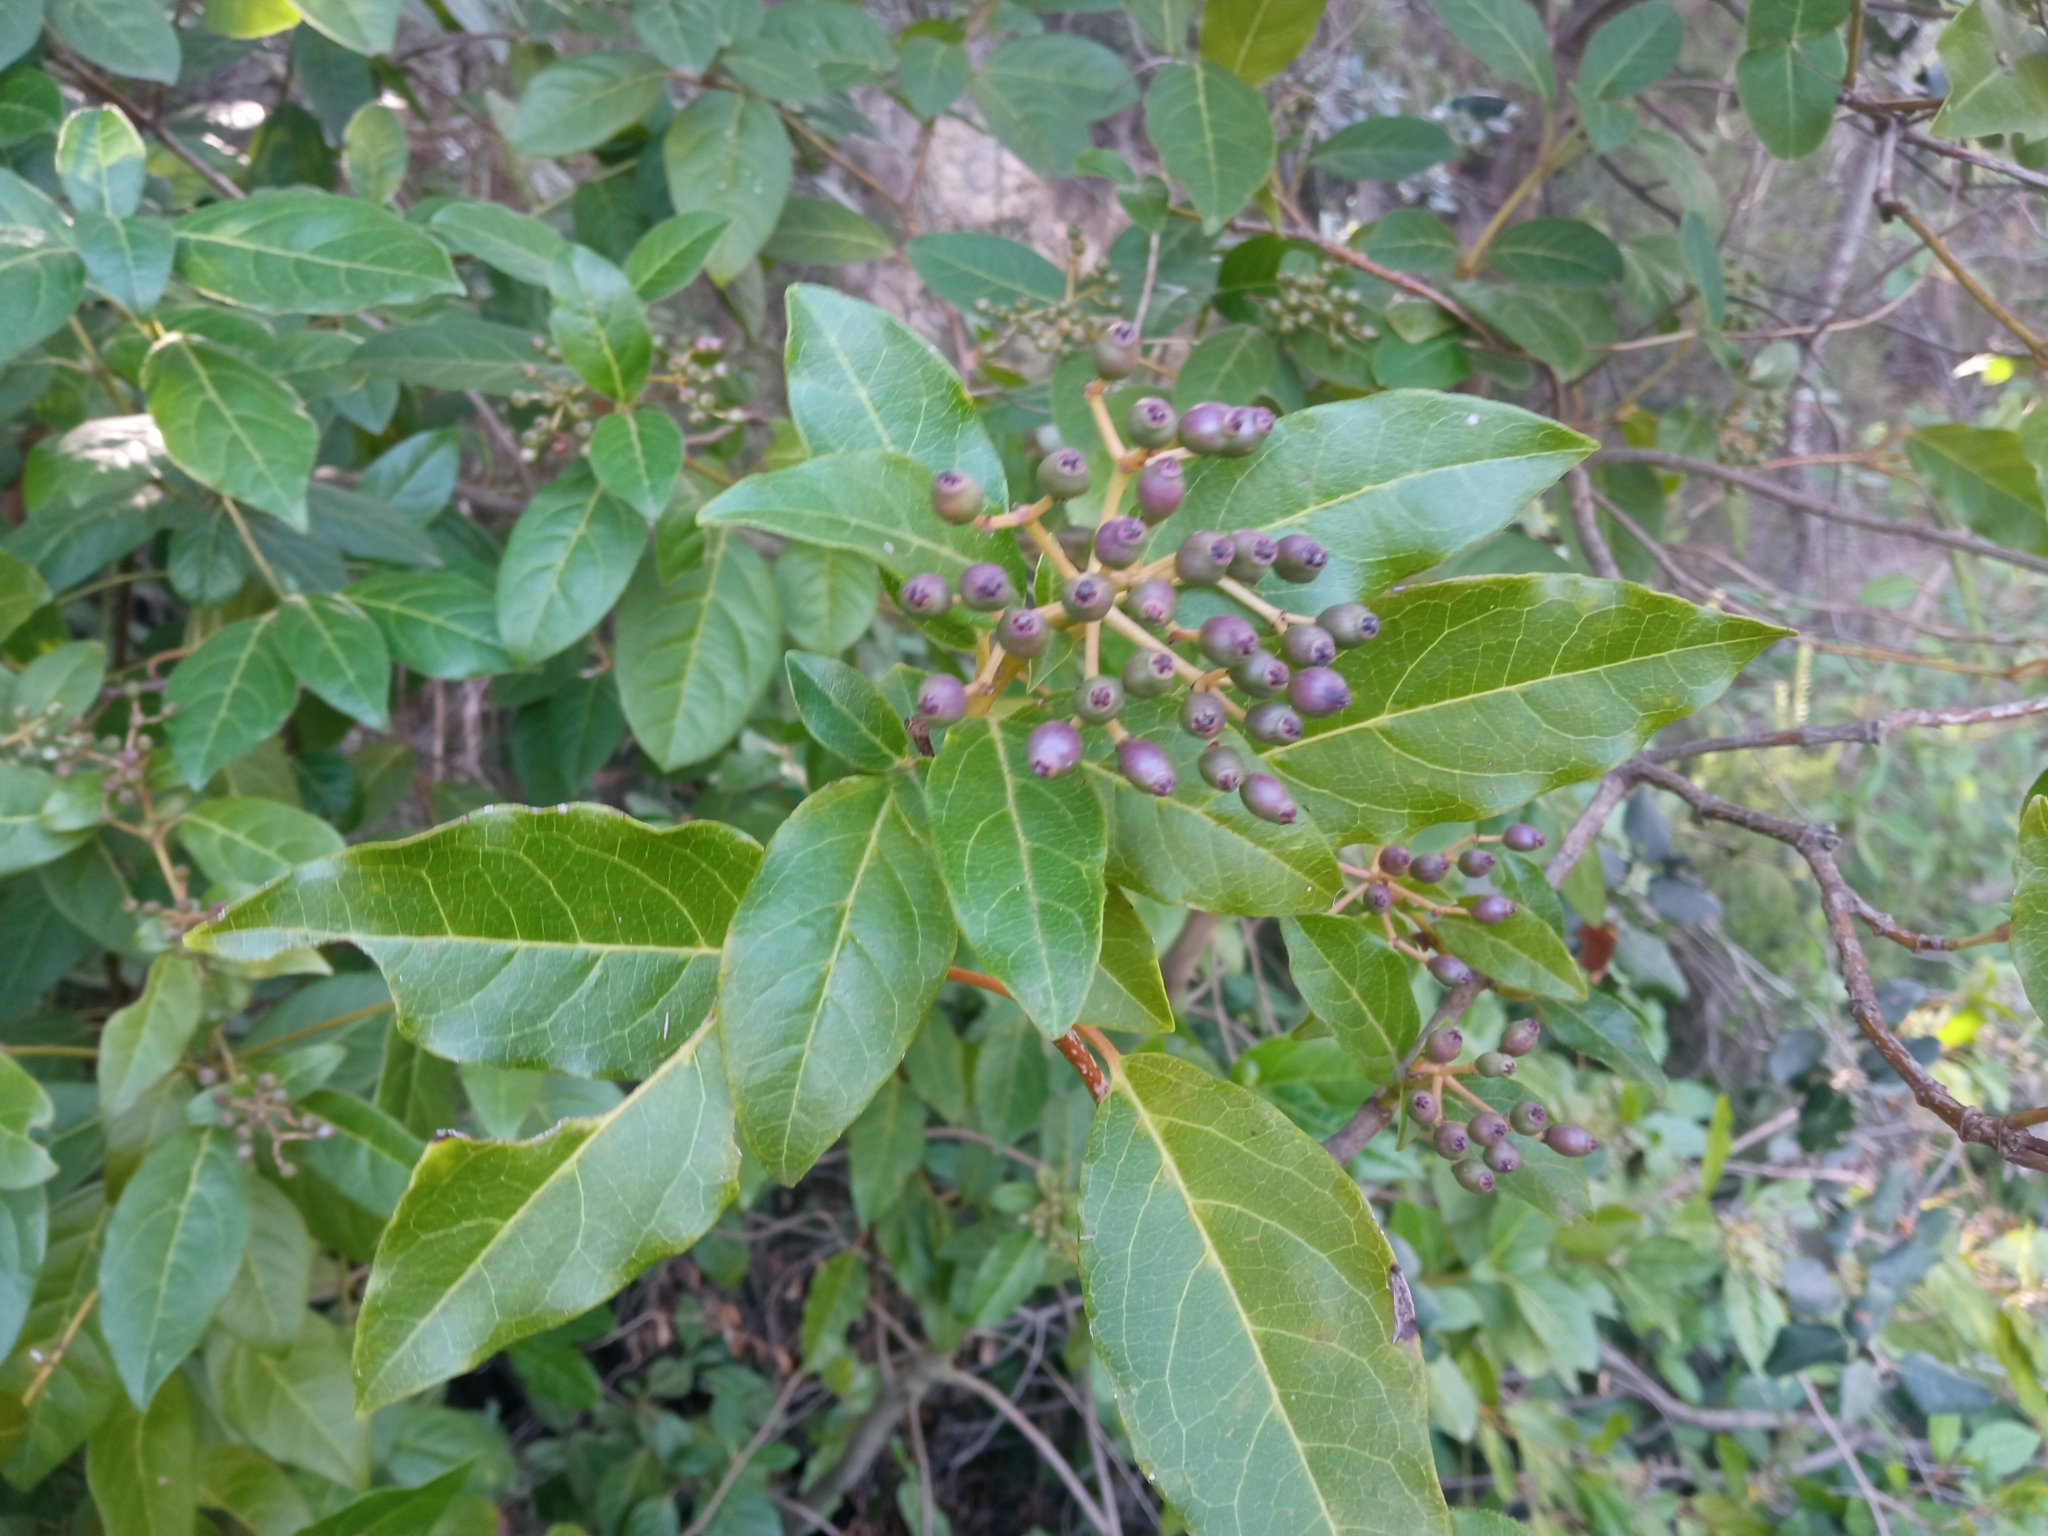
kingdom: Plantae
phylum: Tracheophyta
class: Magnoliopsida
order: Dipsacales
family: Viburnaceae
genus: Viburnum
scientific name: Viburnum tinus
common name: Laurustinus
